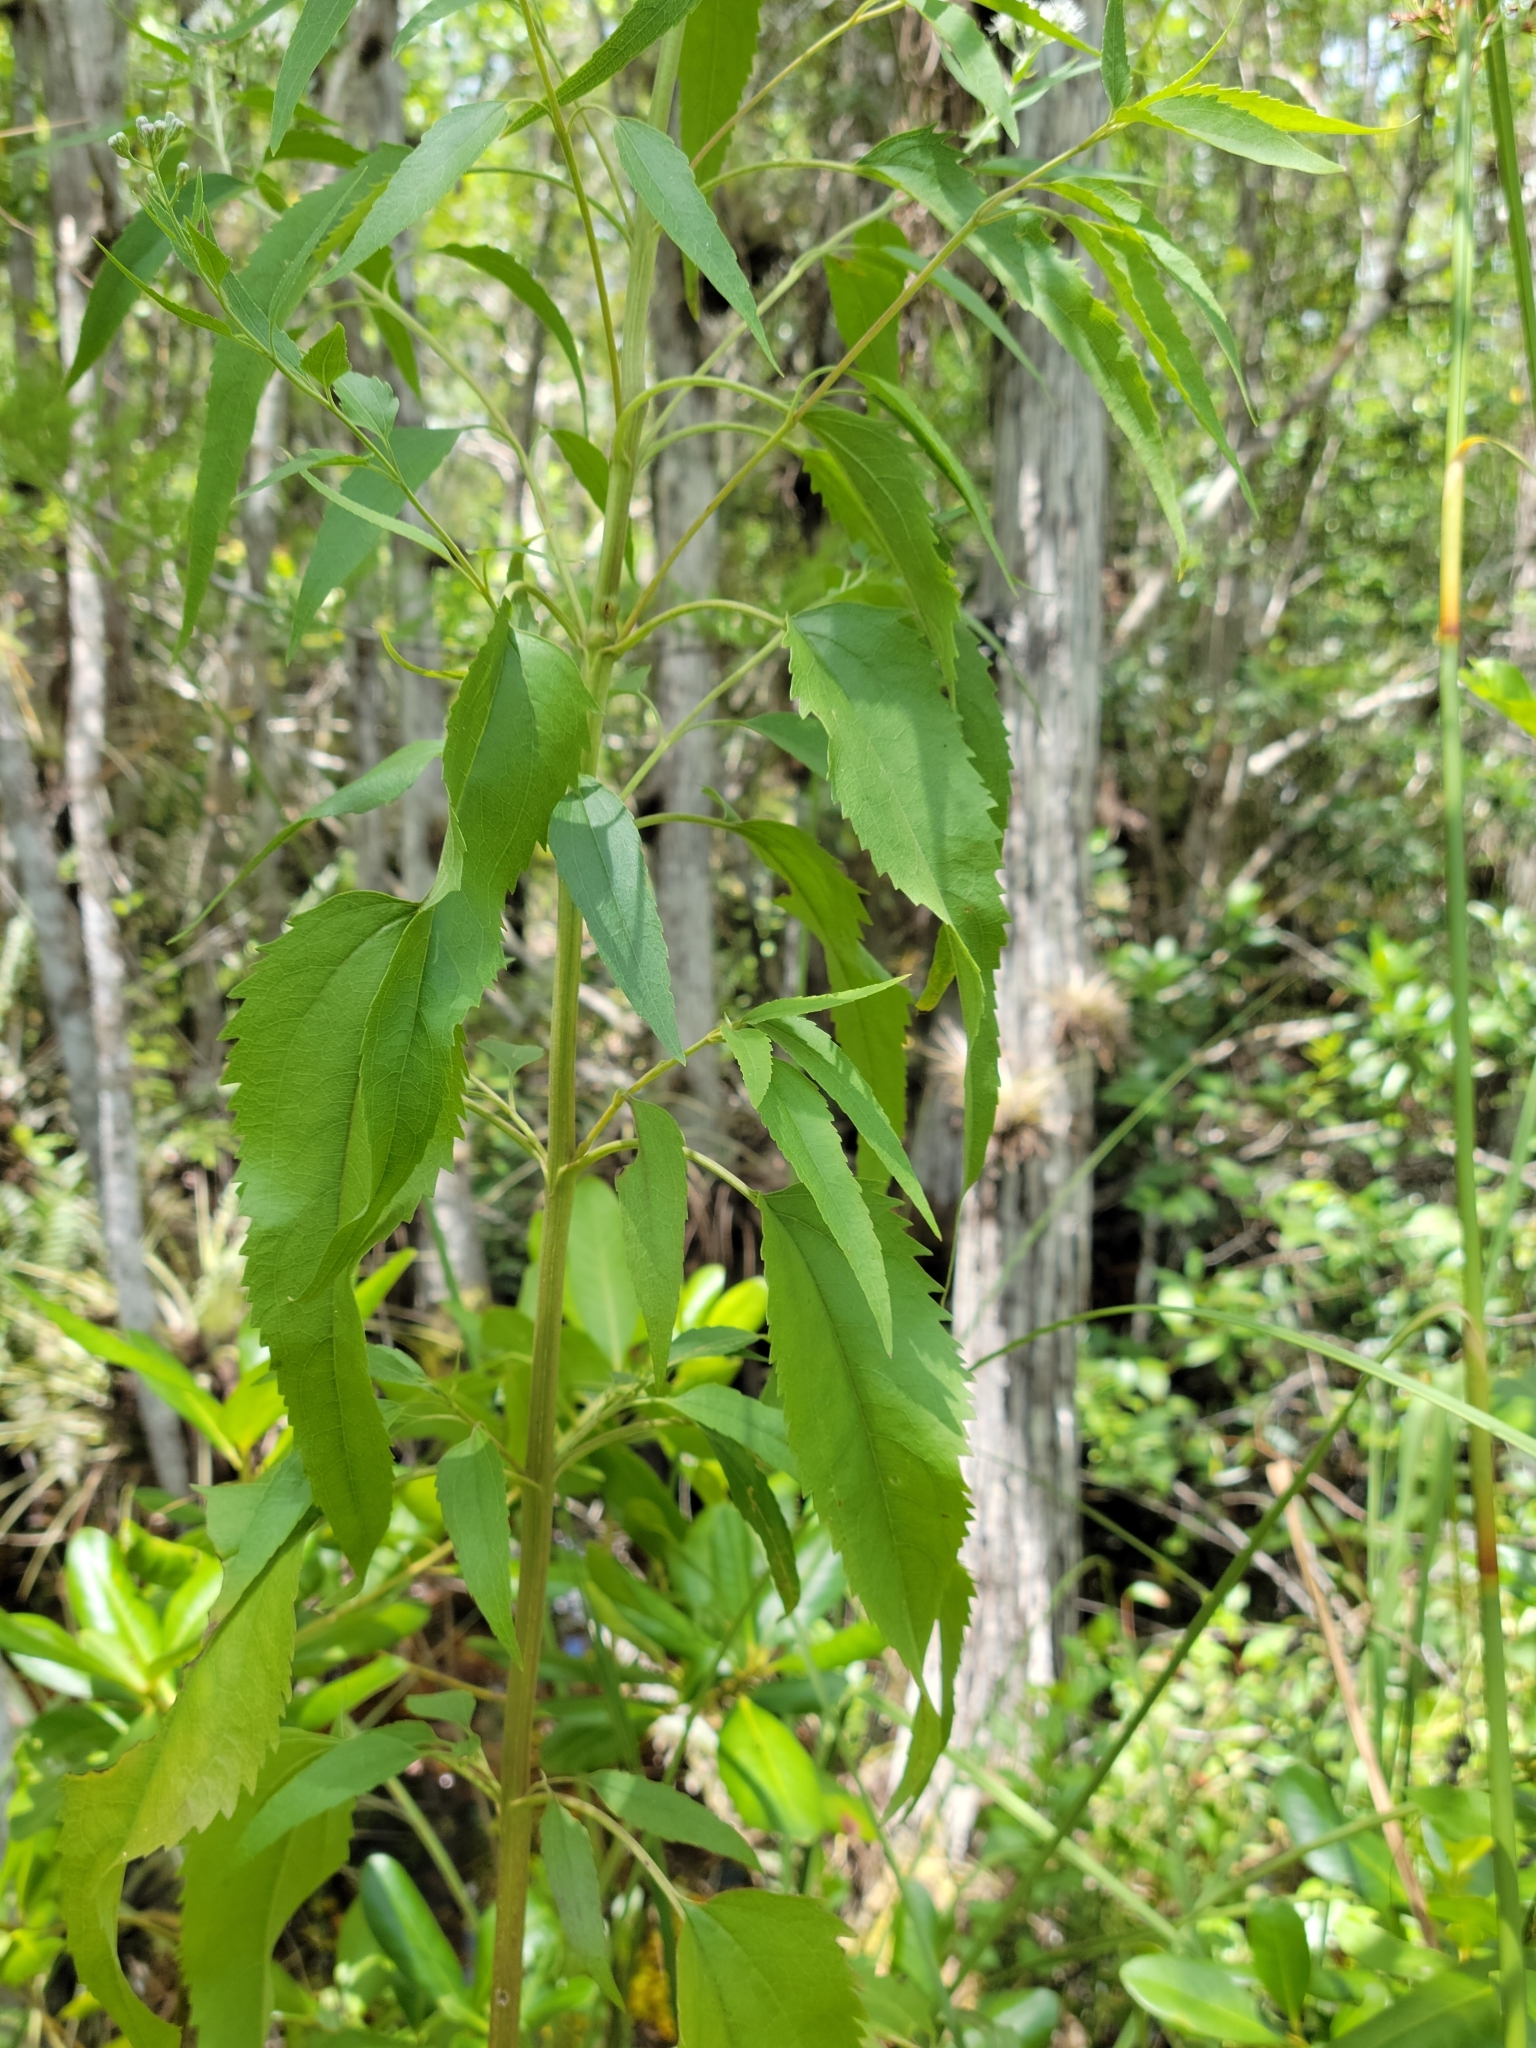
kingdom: Plantae
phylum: Tracheophyta
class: Magnoliopsida
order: Asterales
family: Asteraceae
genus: Eupatorium
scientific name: Eupatorium serotinum
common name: Late boneset
